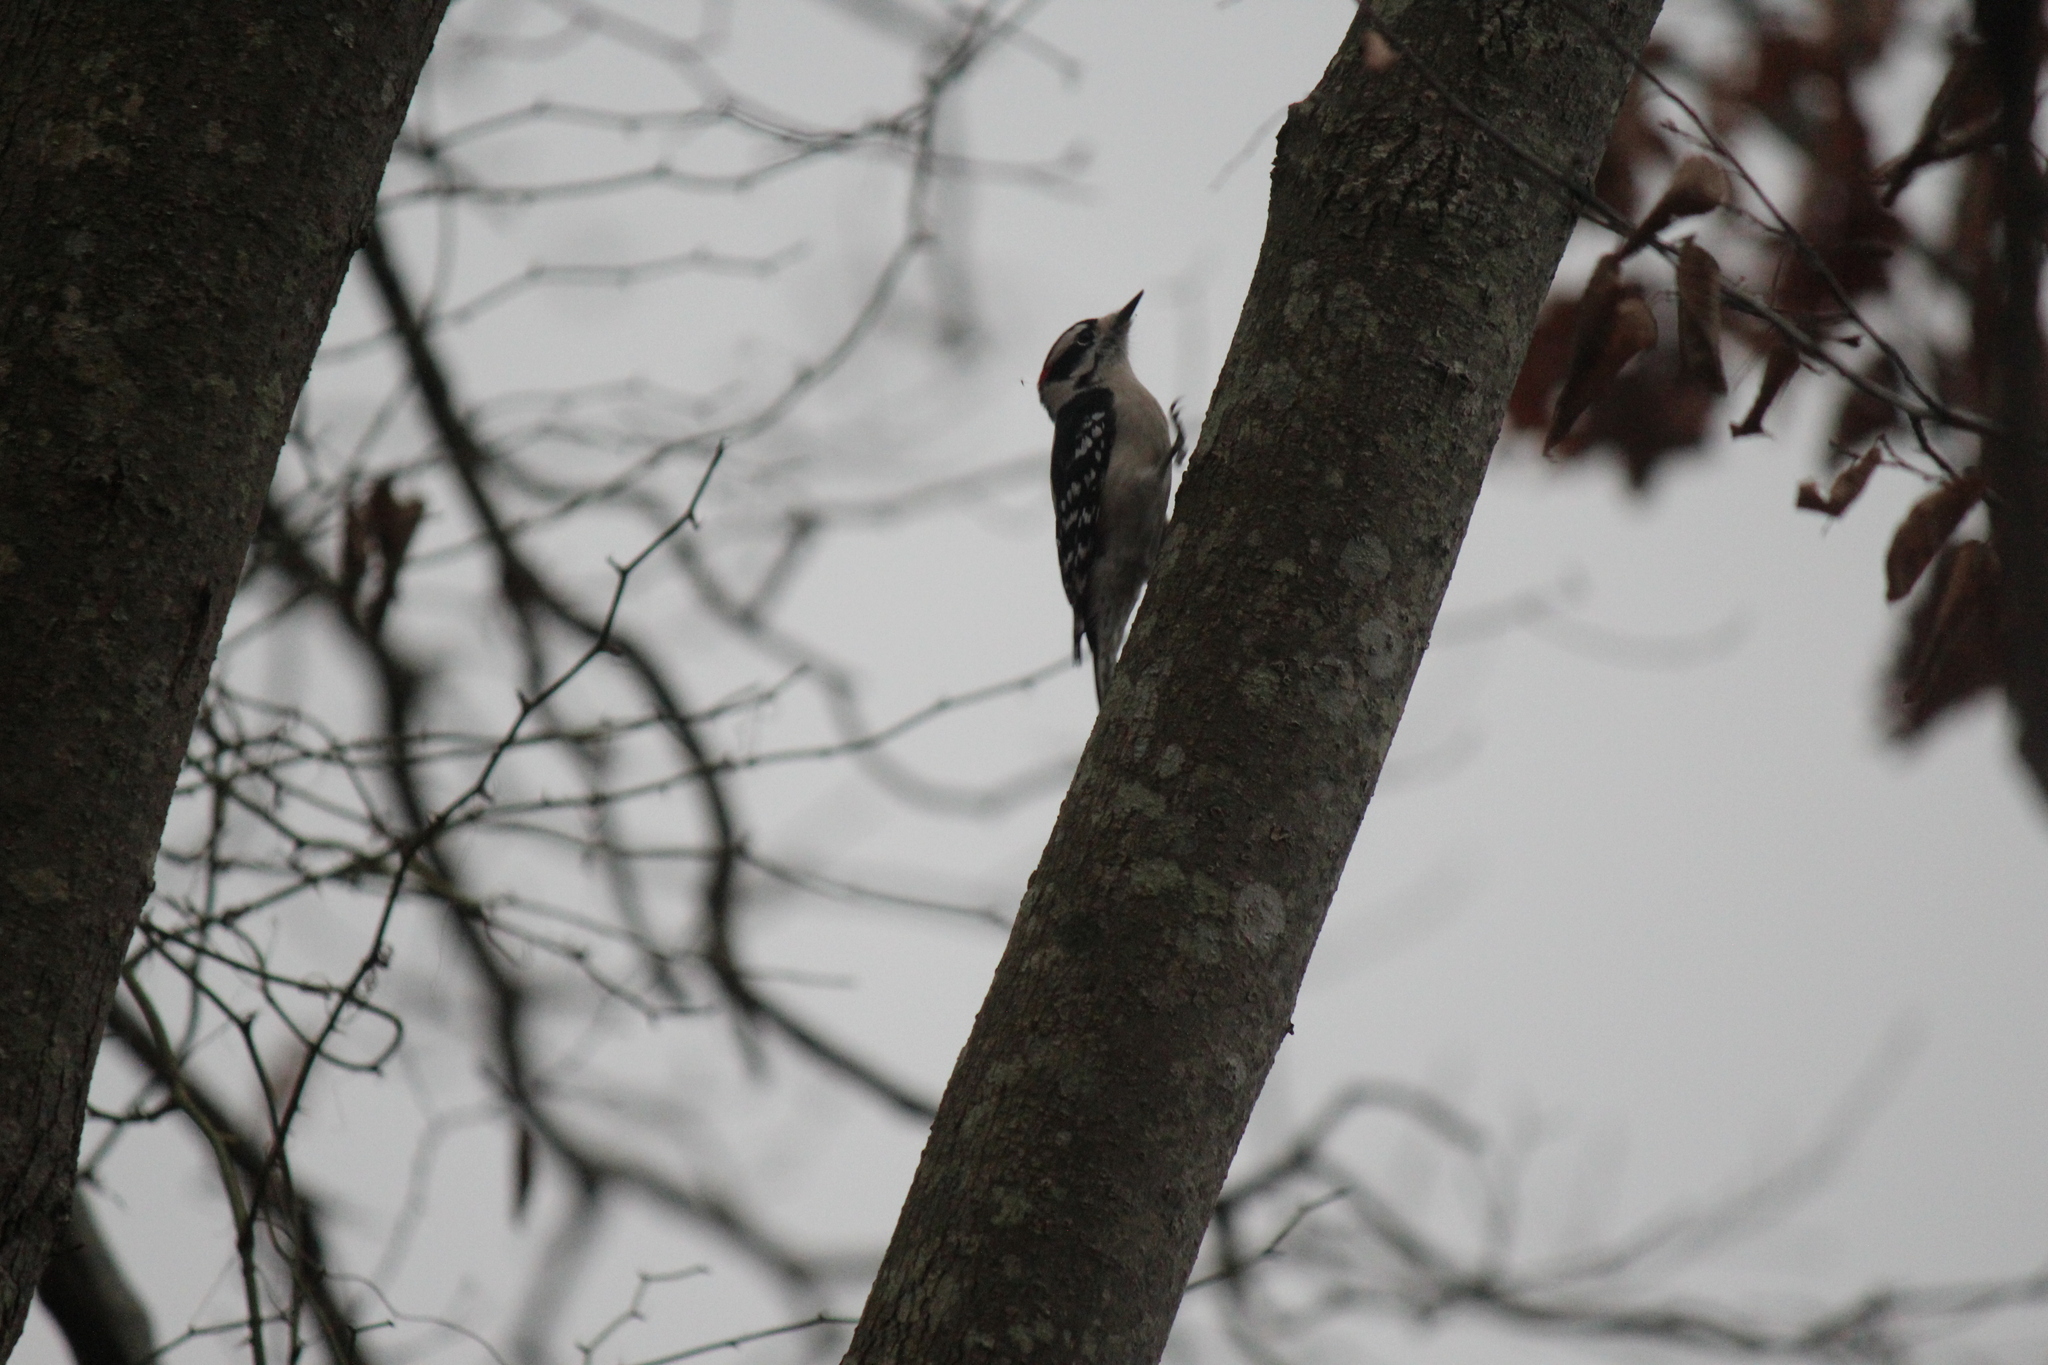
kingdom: Animalia
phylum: Chordata
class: Aves
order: Piciformes
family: Picidae
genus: Dryobates
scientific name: Dryobates pubescens
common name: Downy woodpecker
